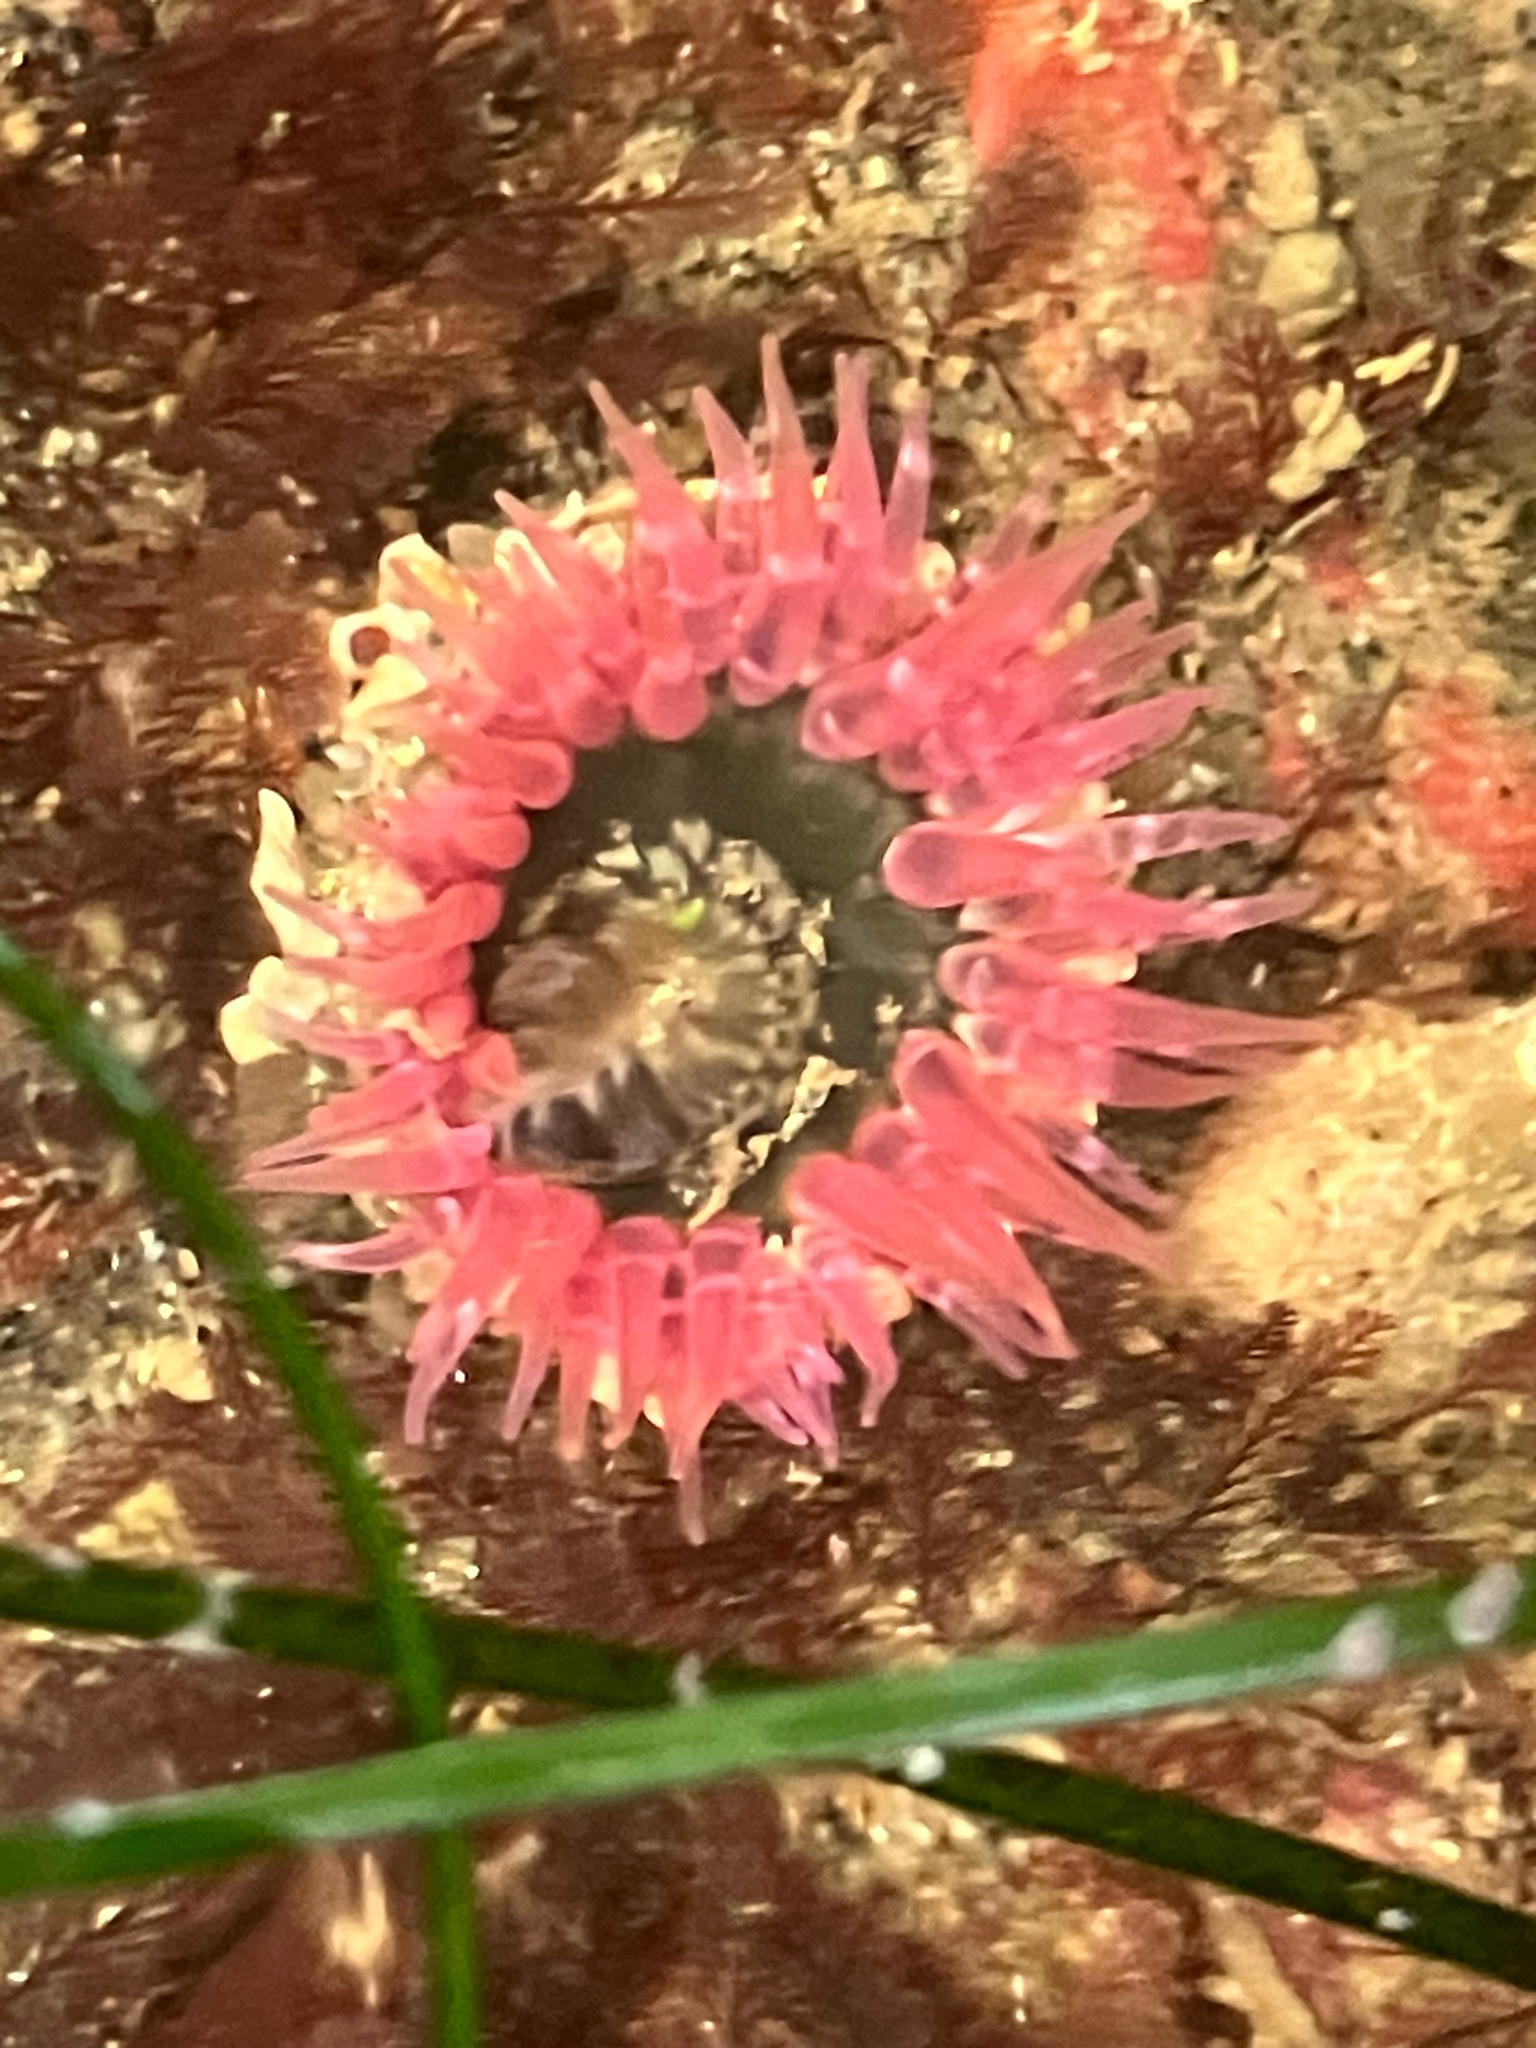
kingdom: Animalia
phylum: Cnidaria
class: Anthozoa
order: Actiniaria
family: Actiniidae
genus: Anthopleura
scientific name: Anthopleura artemisia
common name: Buried sea anemone
